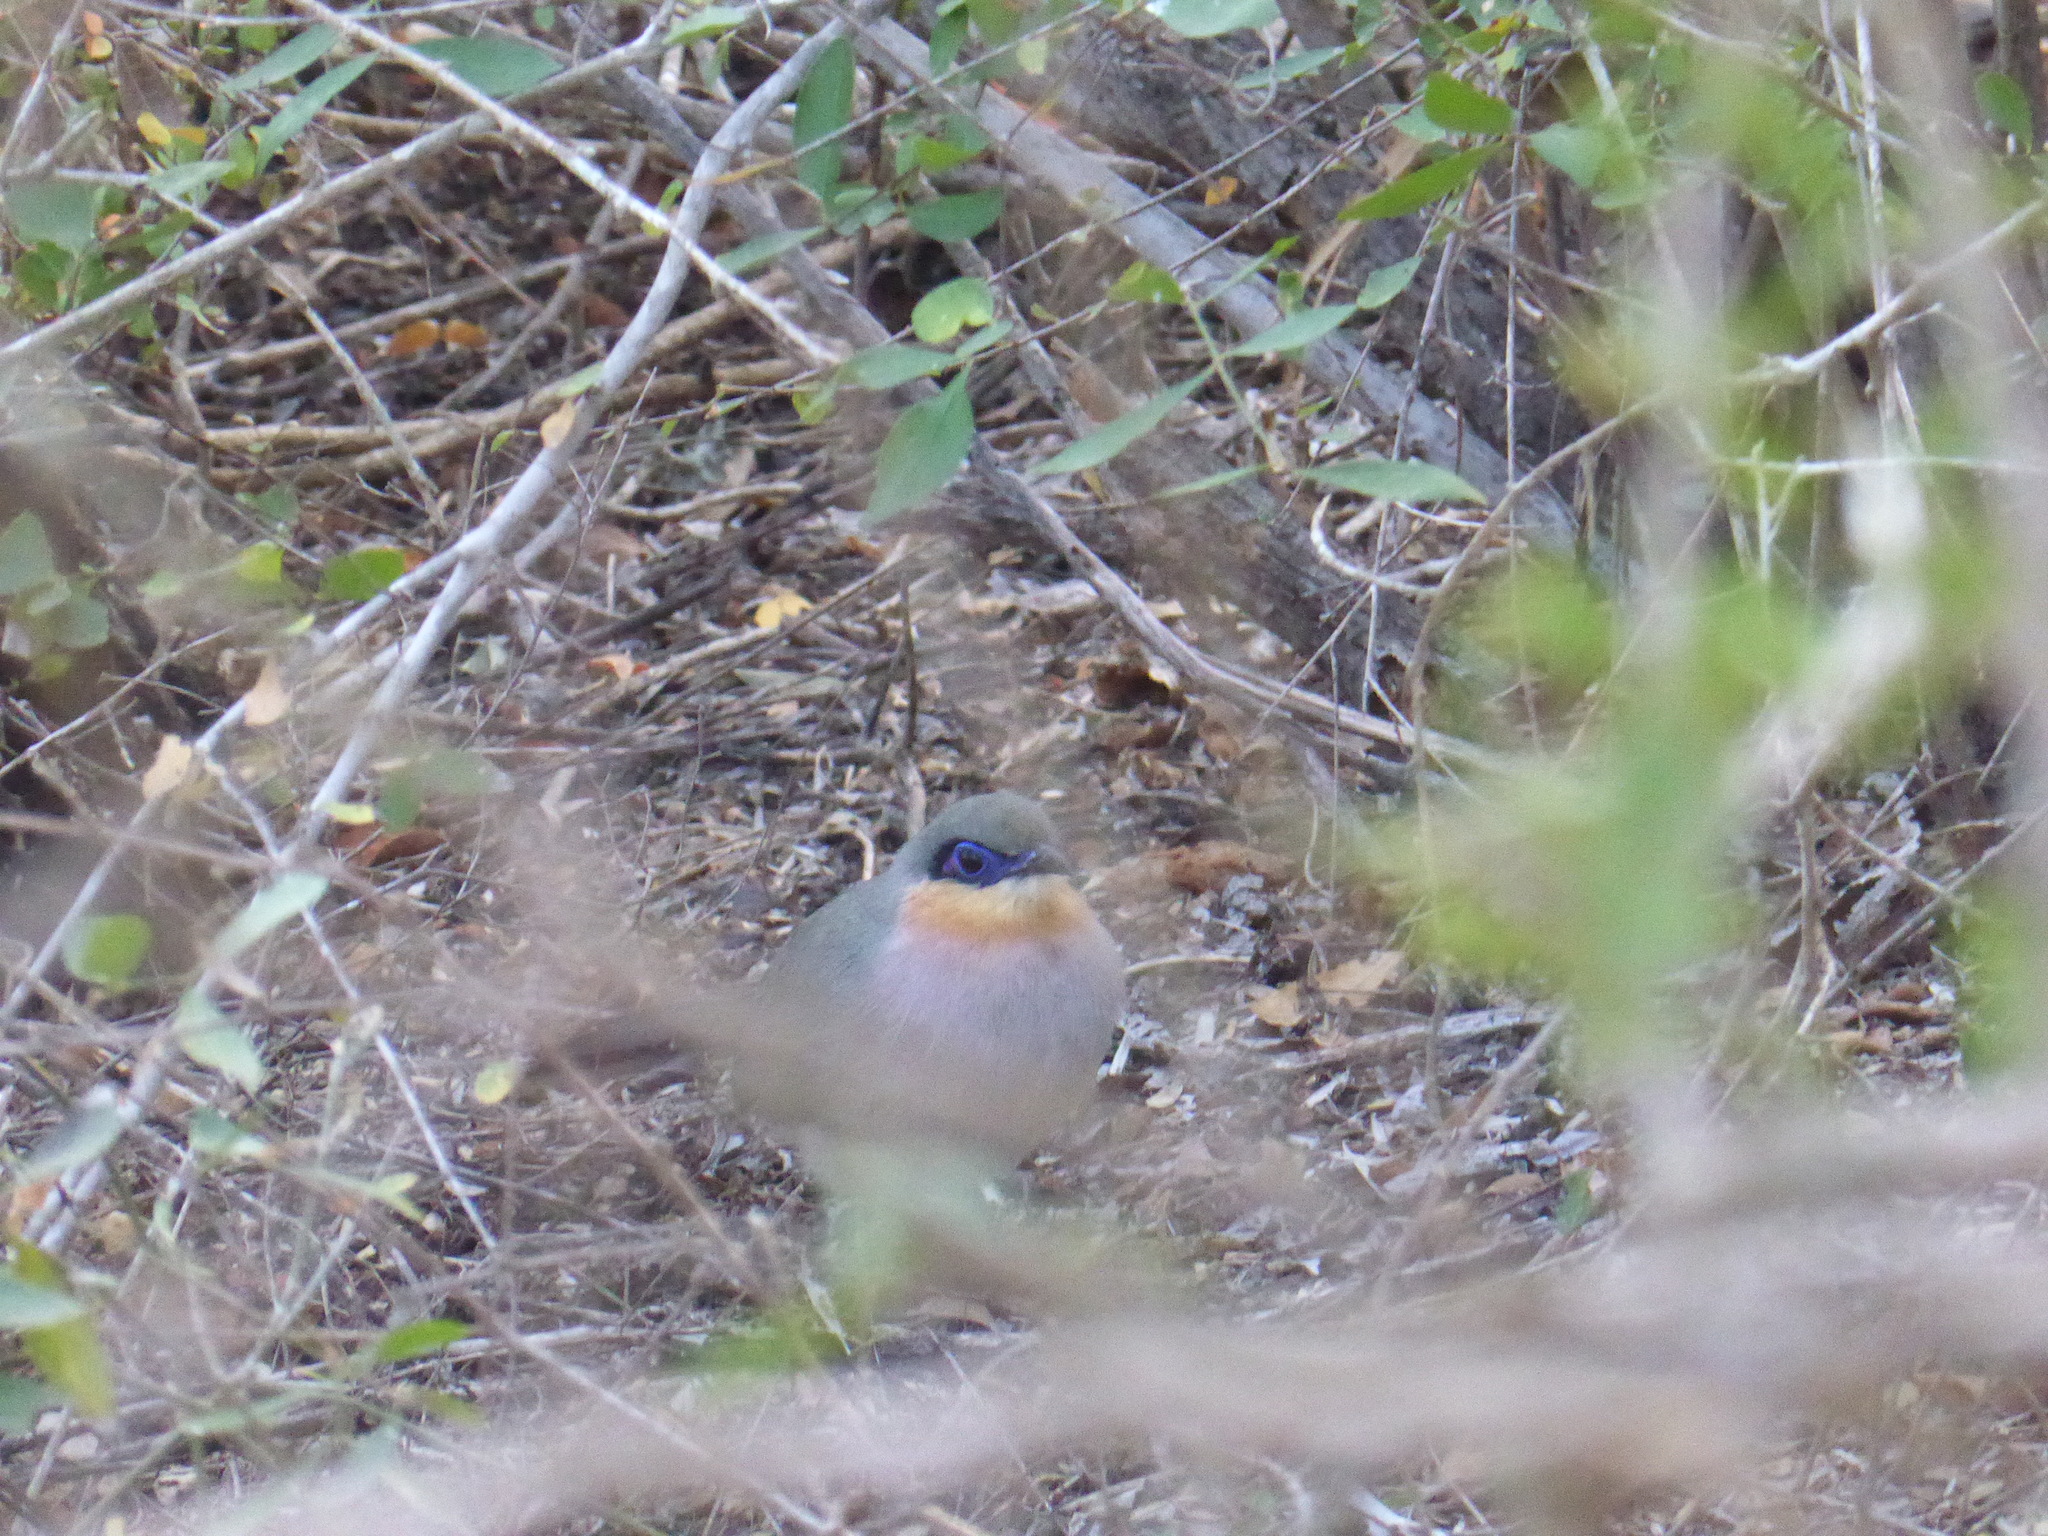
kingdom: Animalia
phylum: Chordata
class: Aves
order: Cuculiformes
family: Cuculidae
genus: Coua
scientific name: Coua cursor
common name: Running coua
